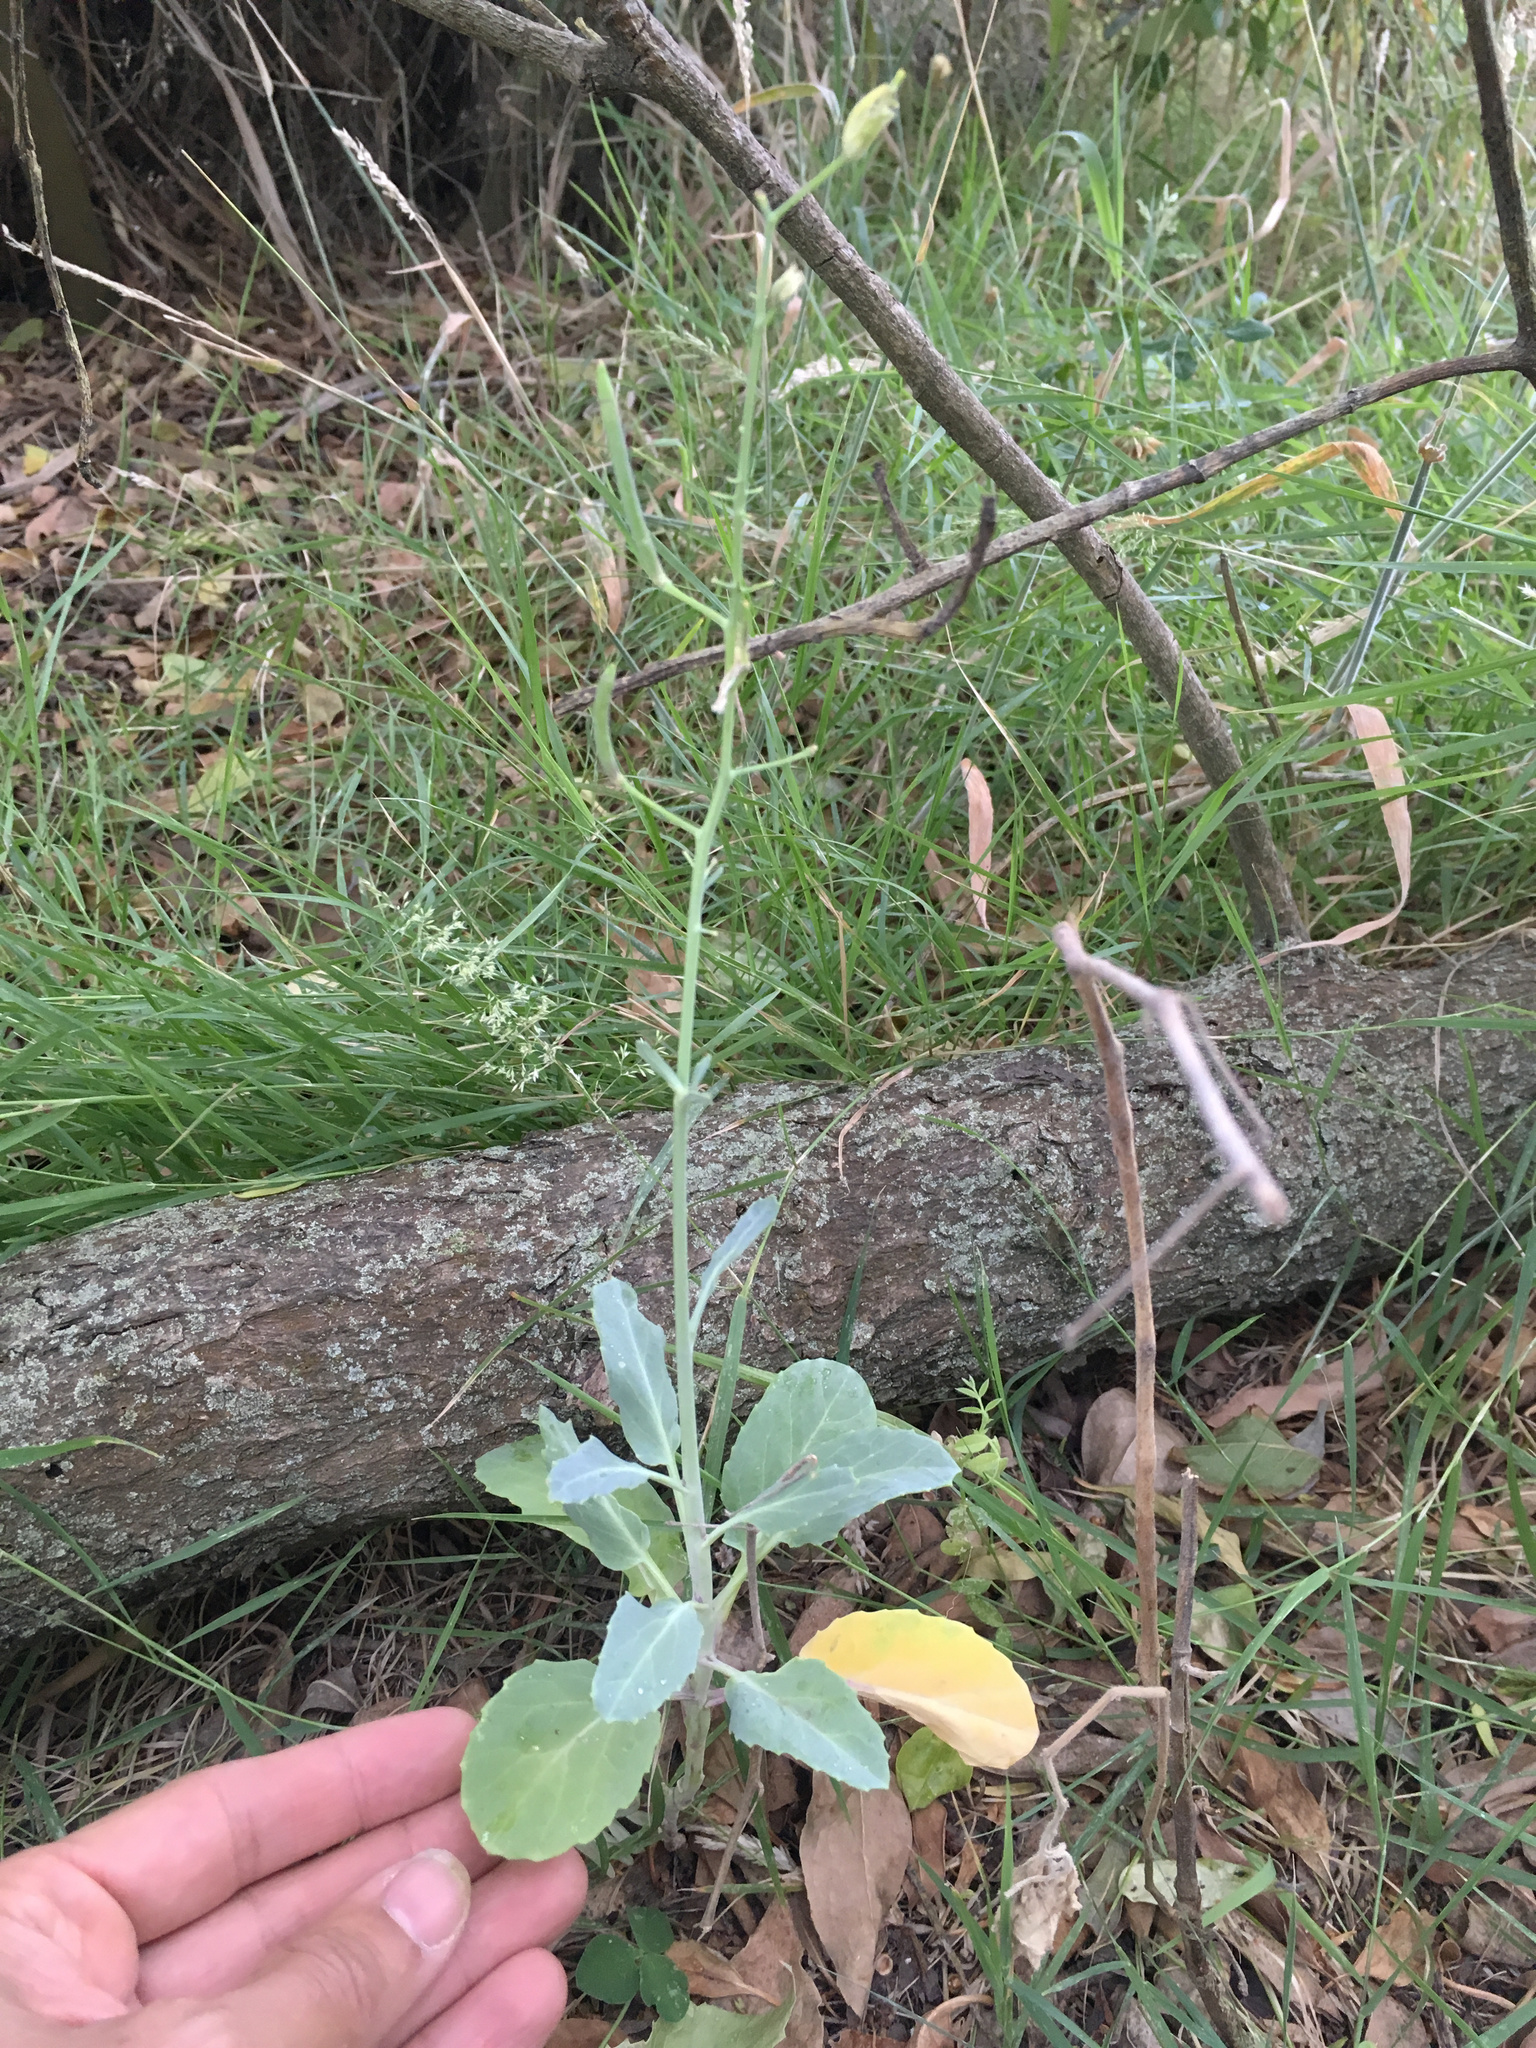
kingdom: Plantae
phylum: Tracheophyta
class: Magnoliopsida
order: Brassicales
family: Brassicaceae
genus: Brassica
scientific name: Brassica oleracea
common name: Cabbage
